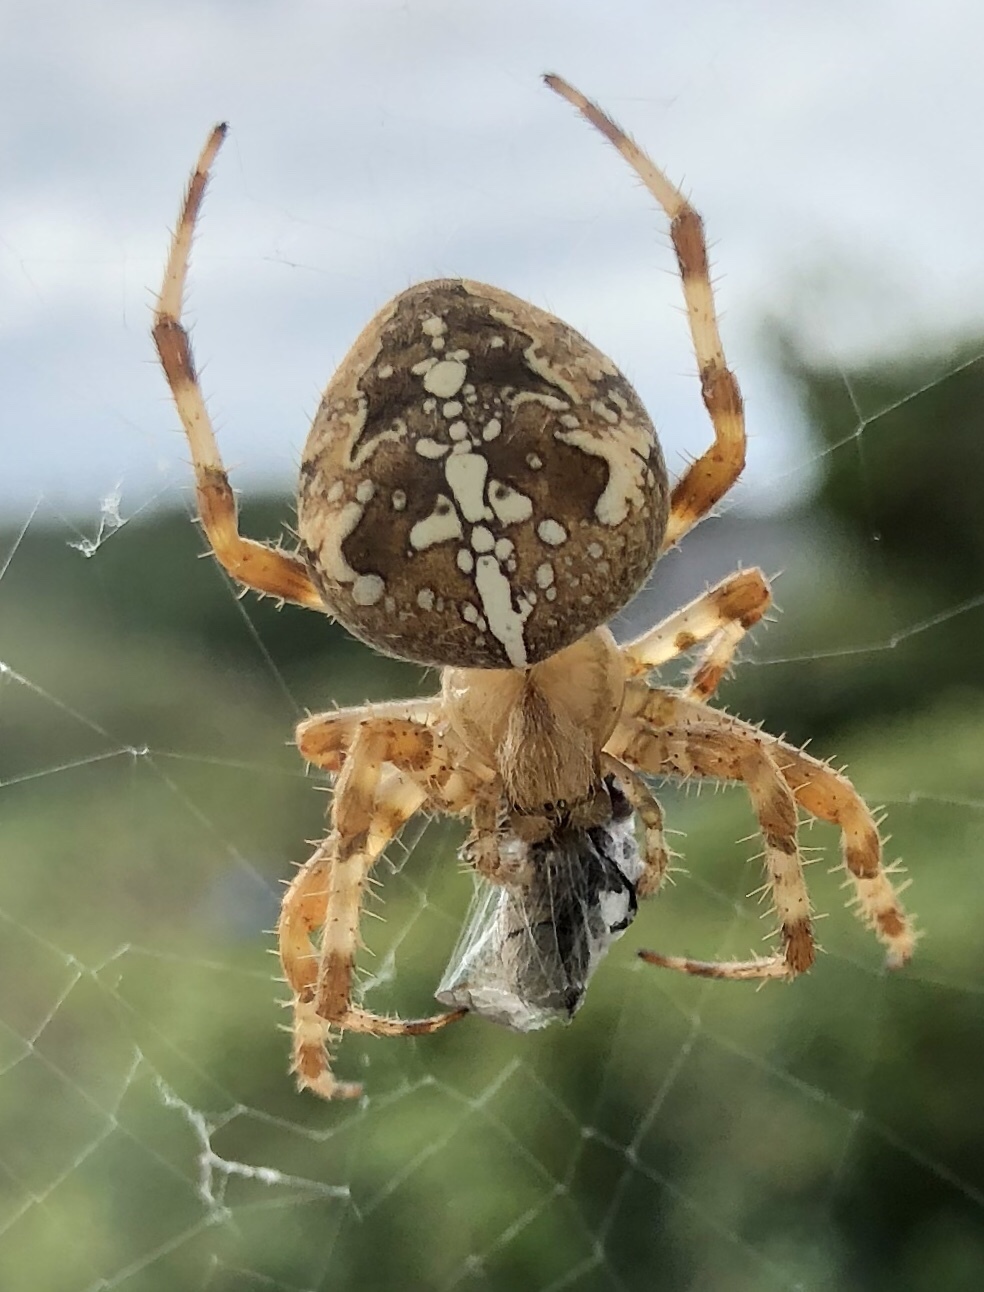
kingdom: Animalia
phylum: Arthropoda
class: Arachnida
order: Araneae
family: Araneidae
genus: Araneus
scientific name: Araneus diadematus
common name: Cross orbweaver
